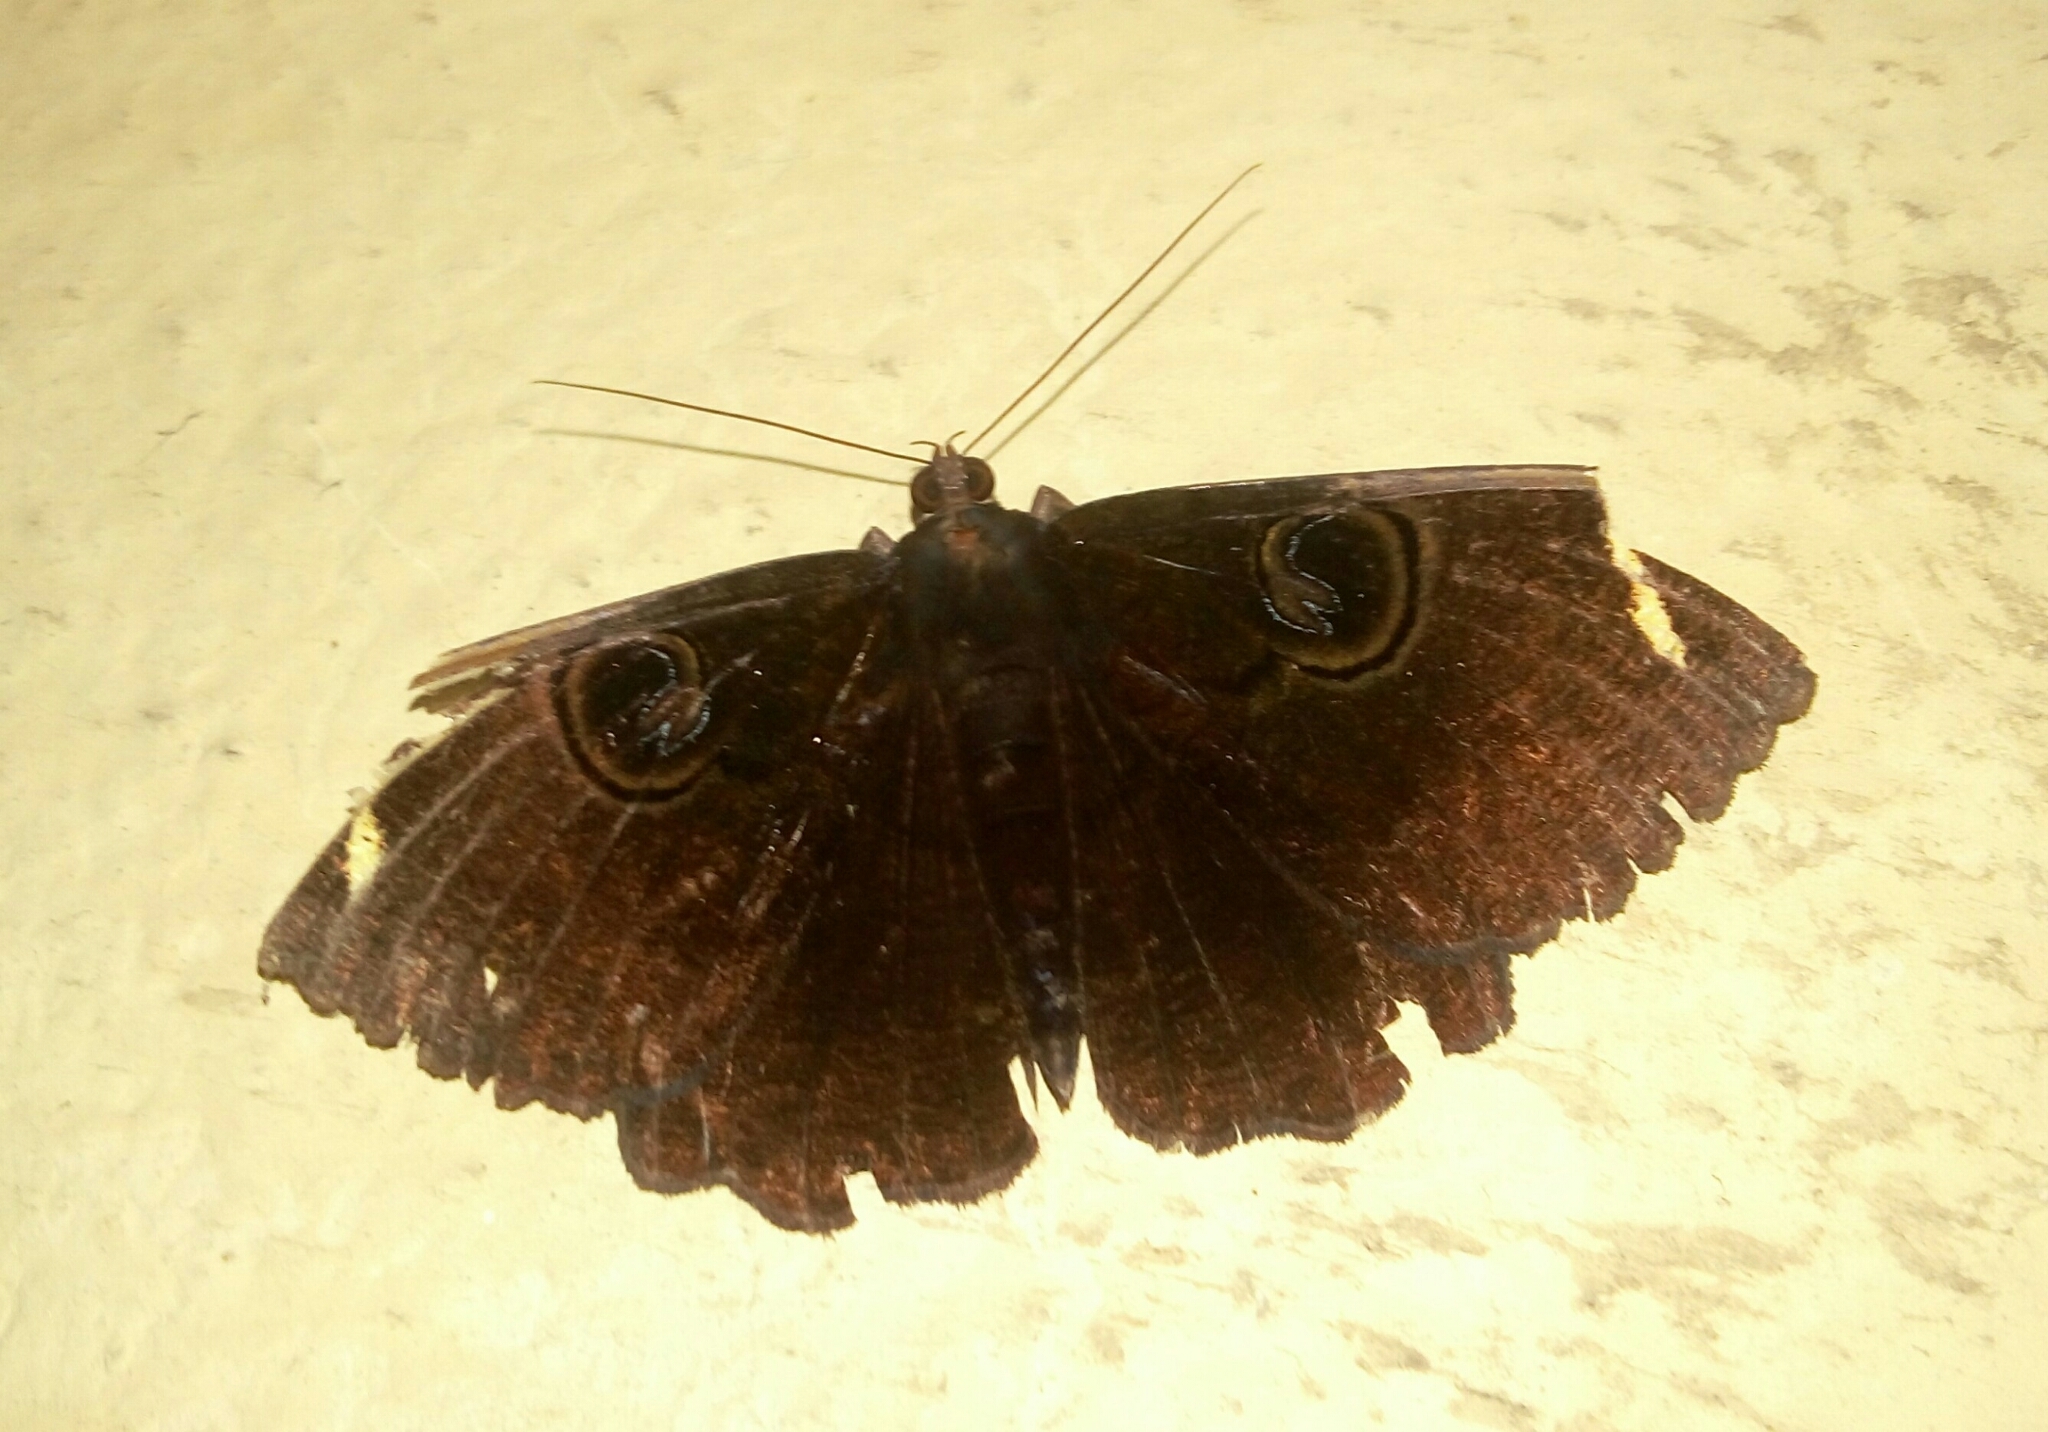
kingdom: Animalia
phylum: Arthropoda
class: Insecta
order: Lepidoptera
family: Erebidae
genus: Erebus
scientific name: Erebus hieroglyphica
